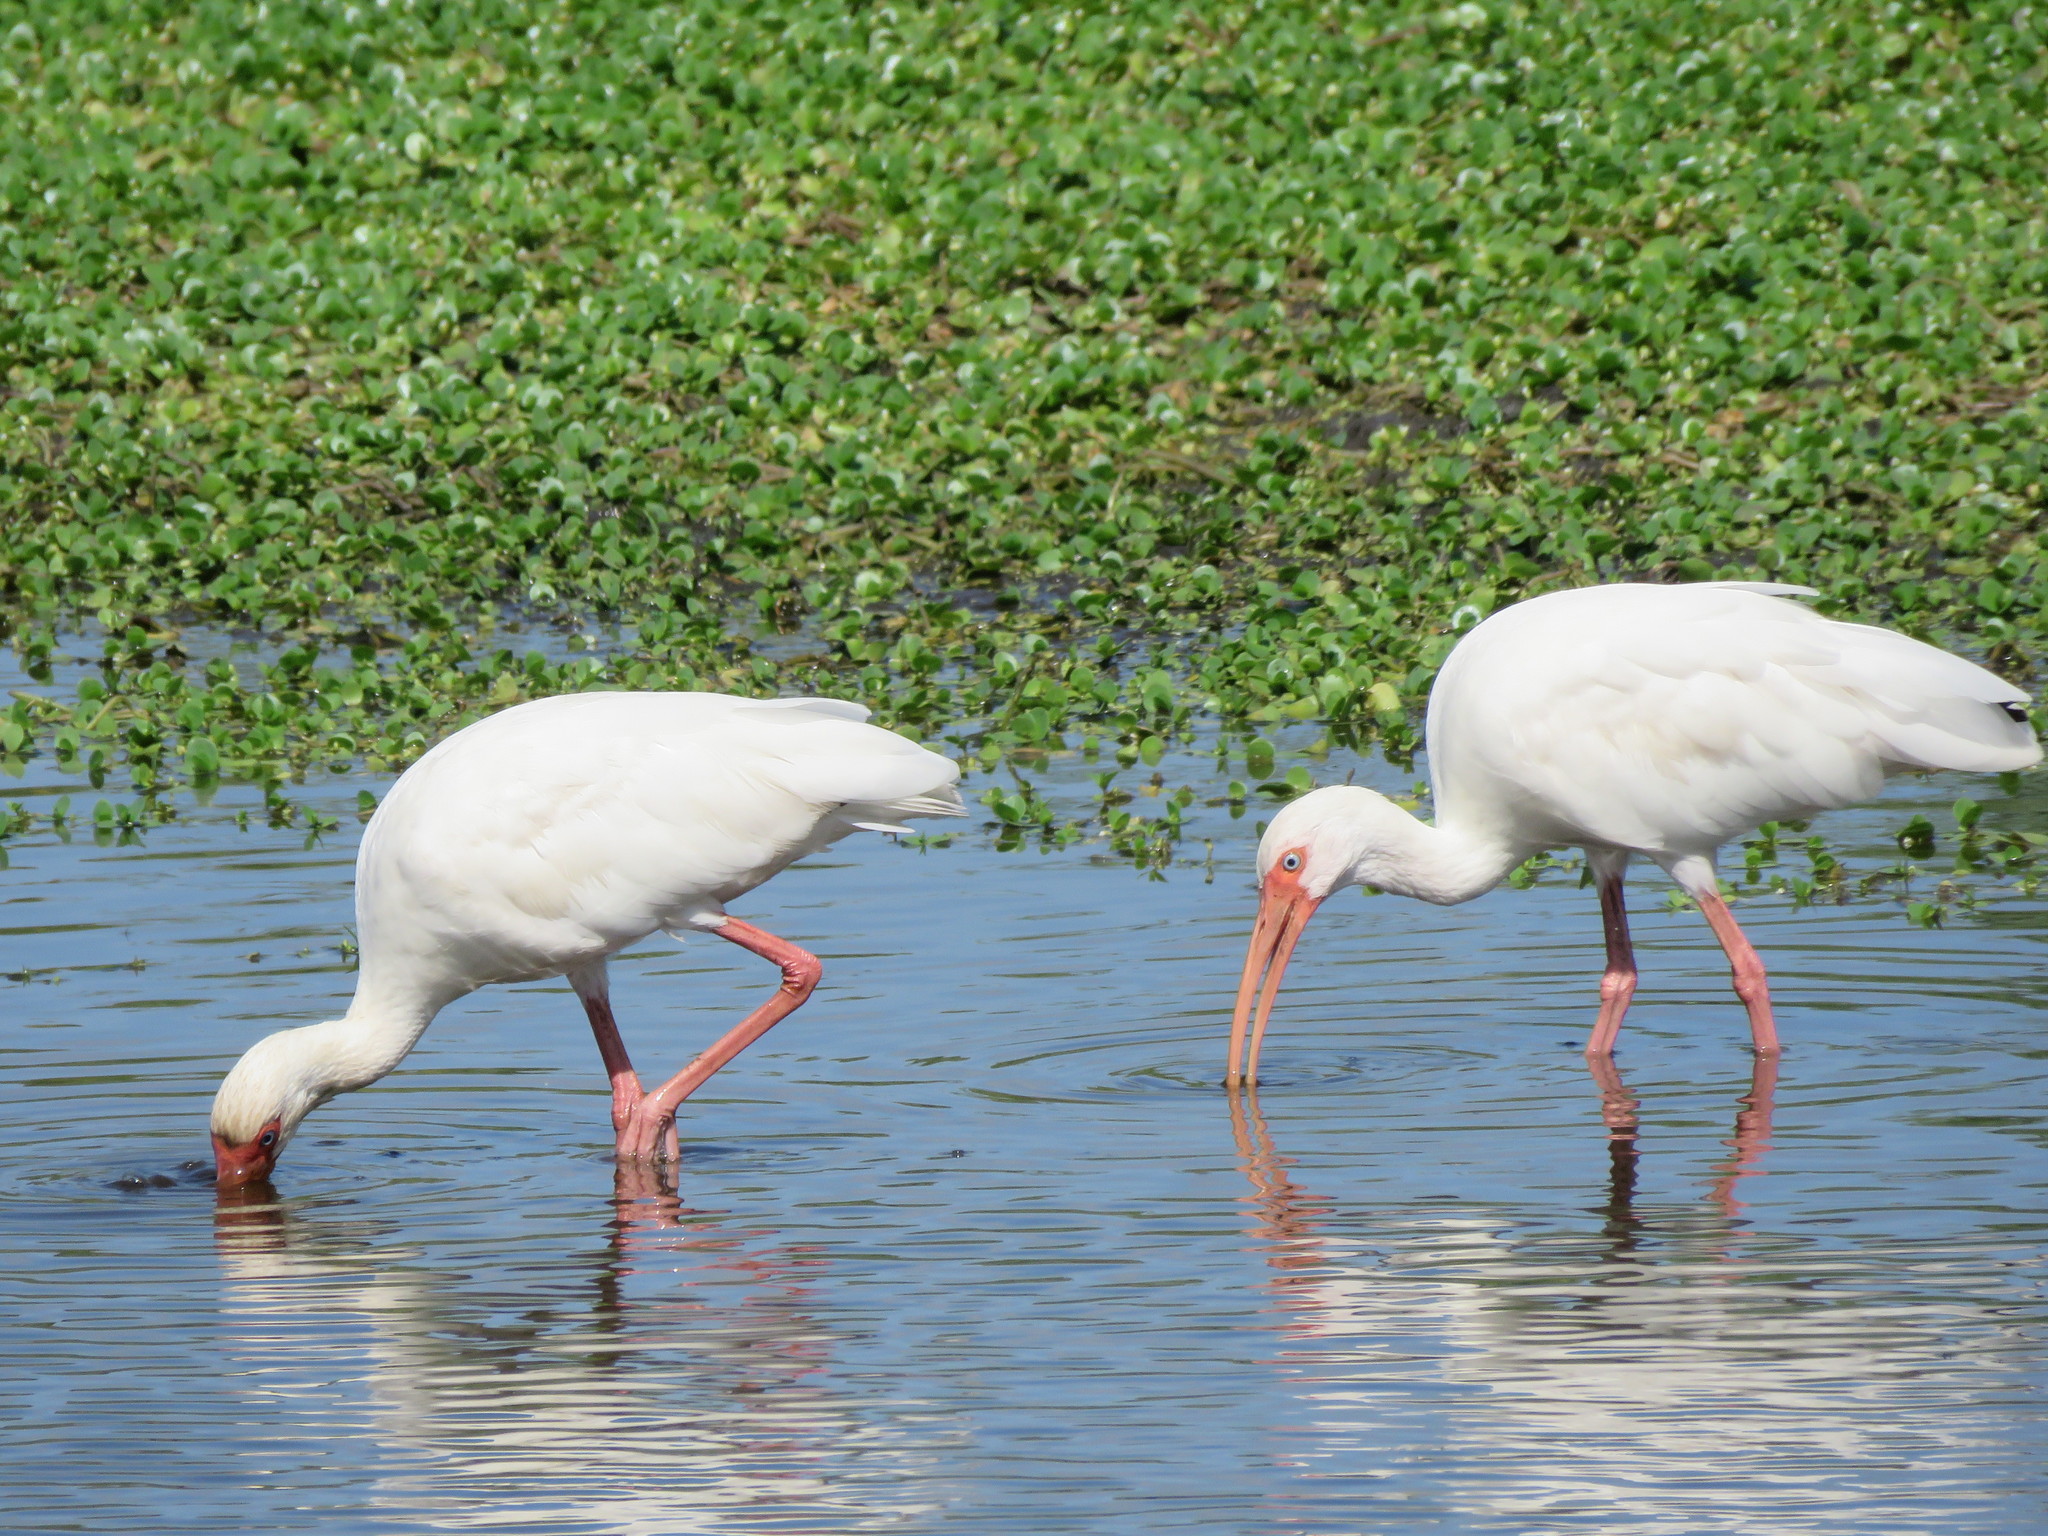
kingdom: Animalia
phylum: Chordata
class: Aves
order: Pelecaniformes
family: Threskiornithidae
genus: Eudocimus
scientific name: Eudocimus albus
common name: White ibis
